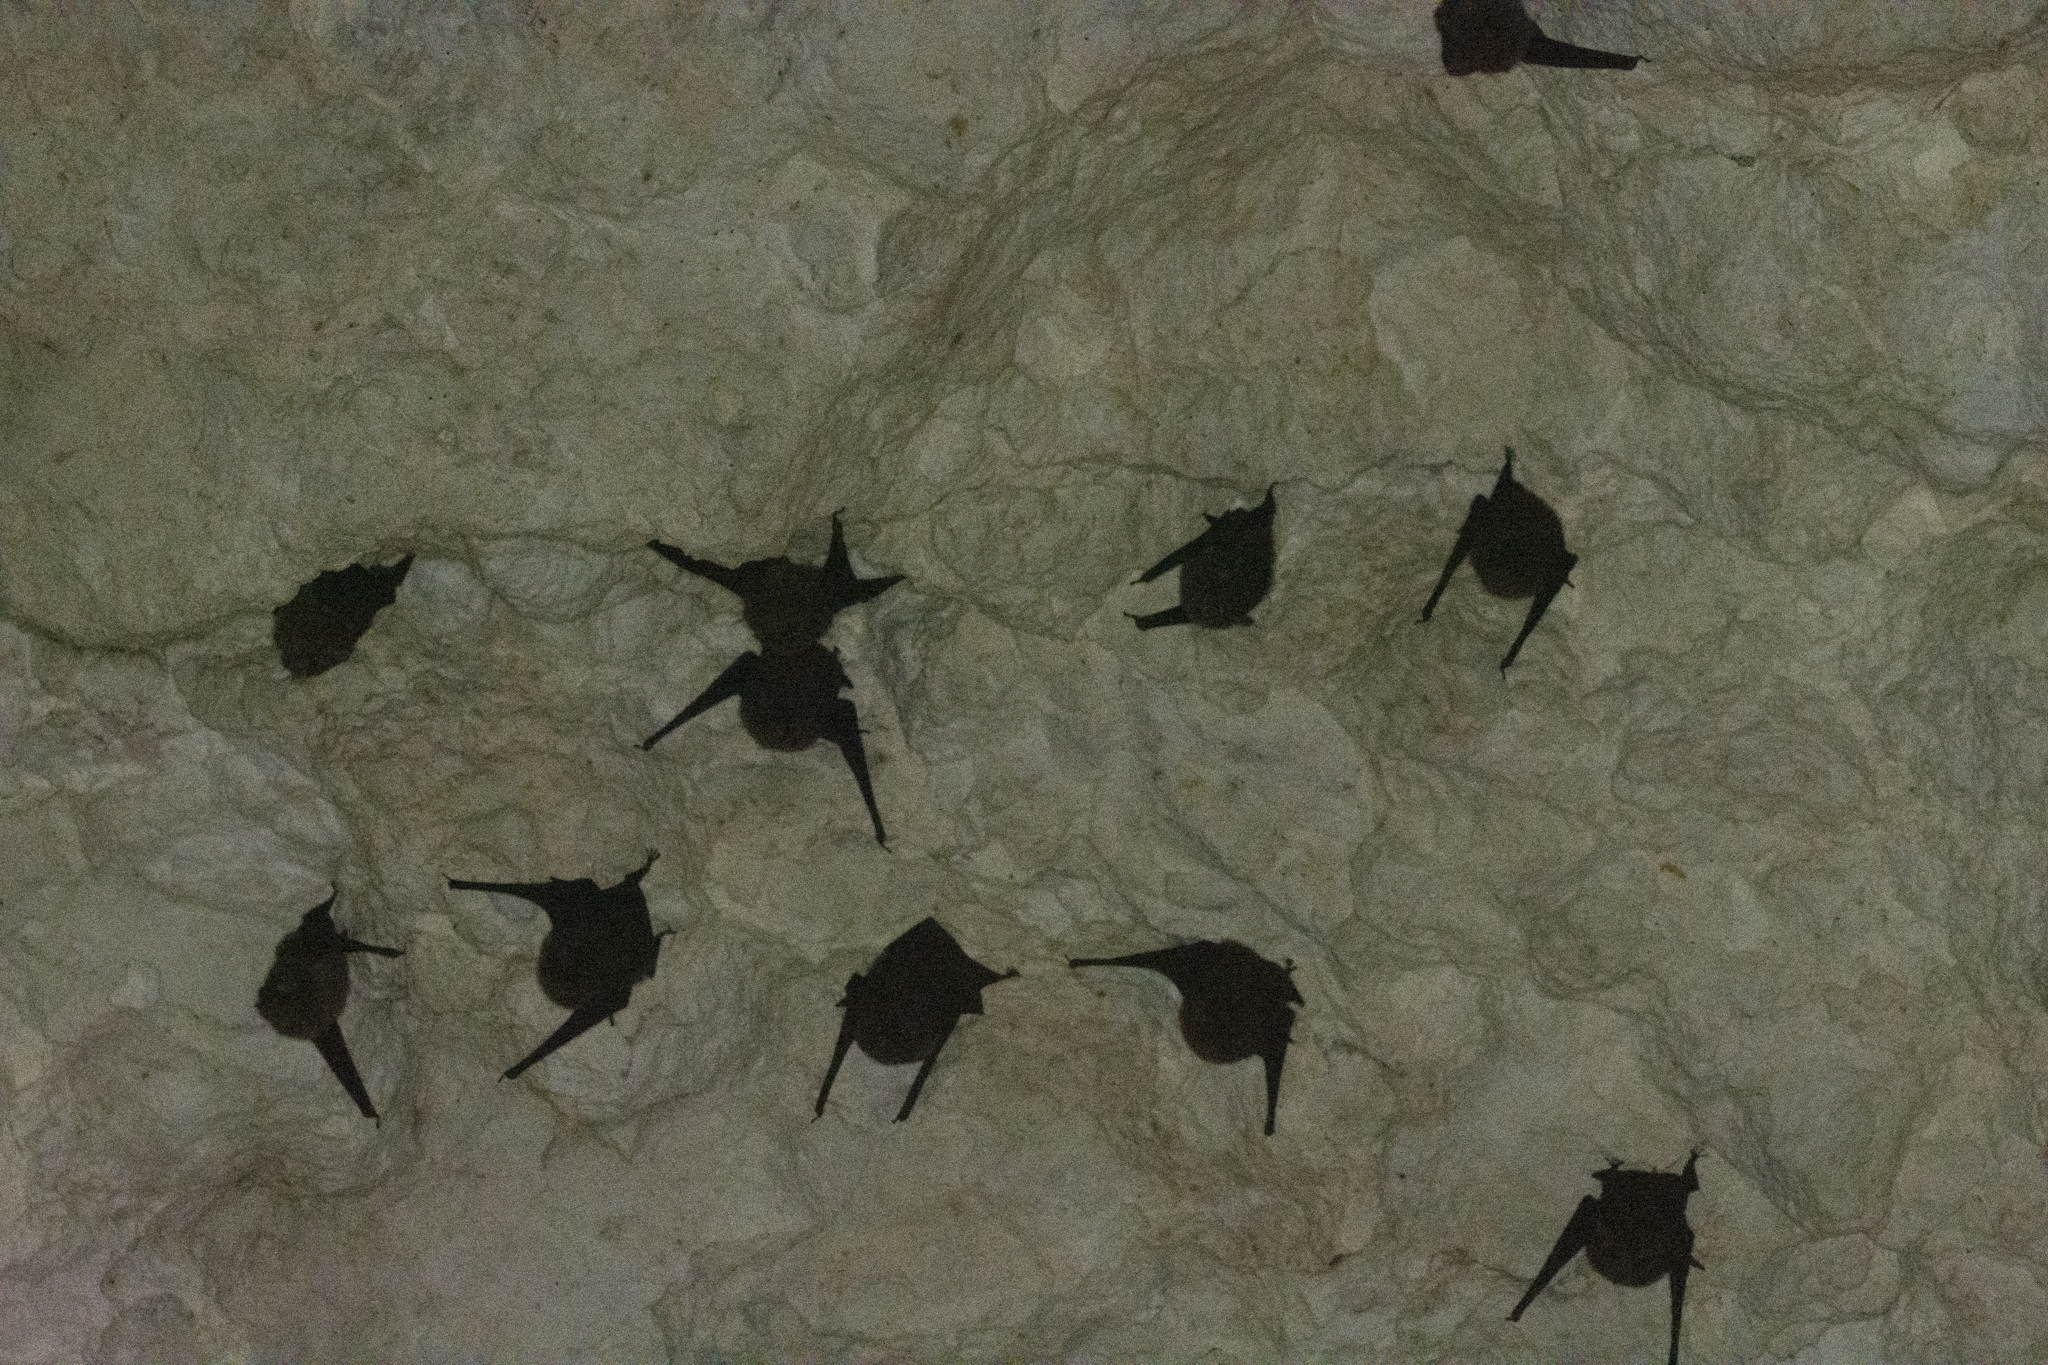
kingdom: Animalia
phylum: Chordata
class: Mammalia
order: Chiroptera
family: Emballonuridae
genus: Emballonura
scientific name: Emballonura semicaudata
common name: Polynesian sheath-tailed bat
